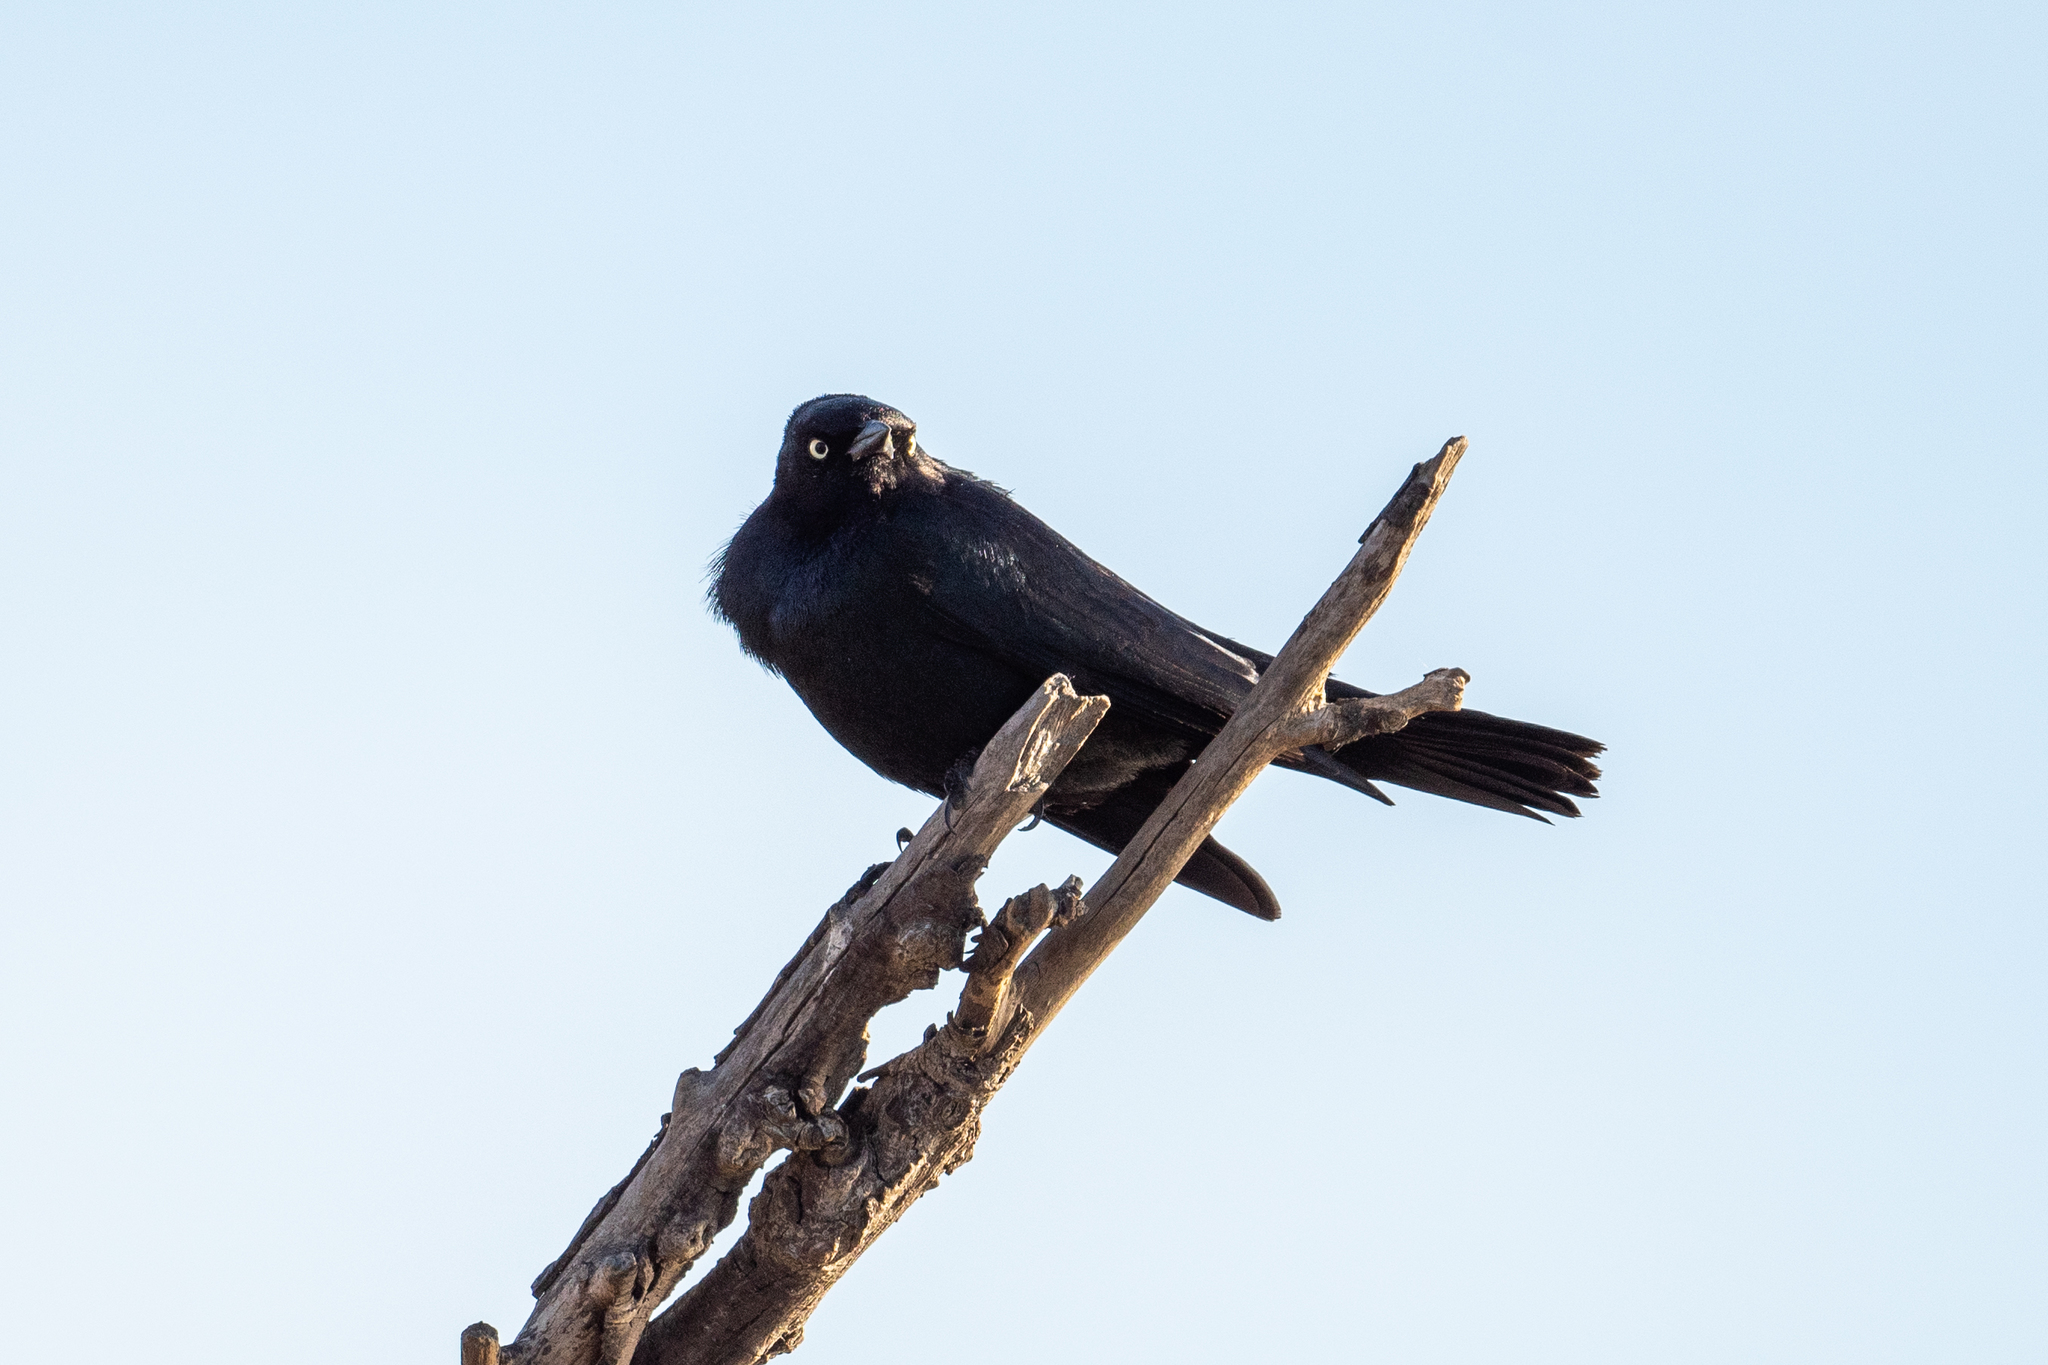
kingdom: Animalia
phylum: Chordata
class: Aves
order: Passeriformes
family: Icteridae
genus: Euphagus
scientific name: Euphagus cyanocephalus
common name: Brewer's blackbird
